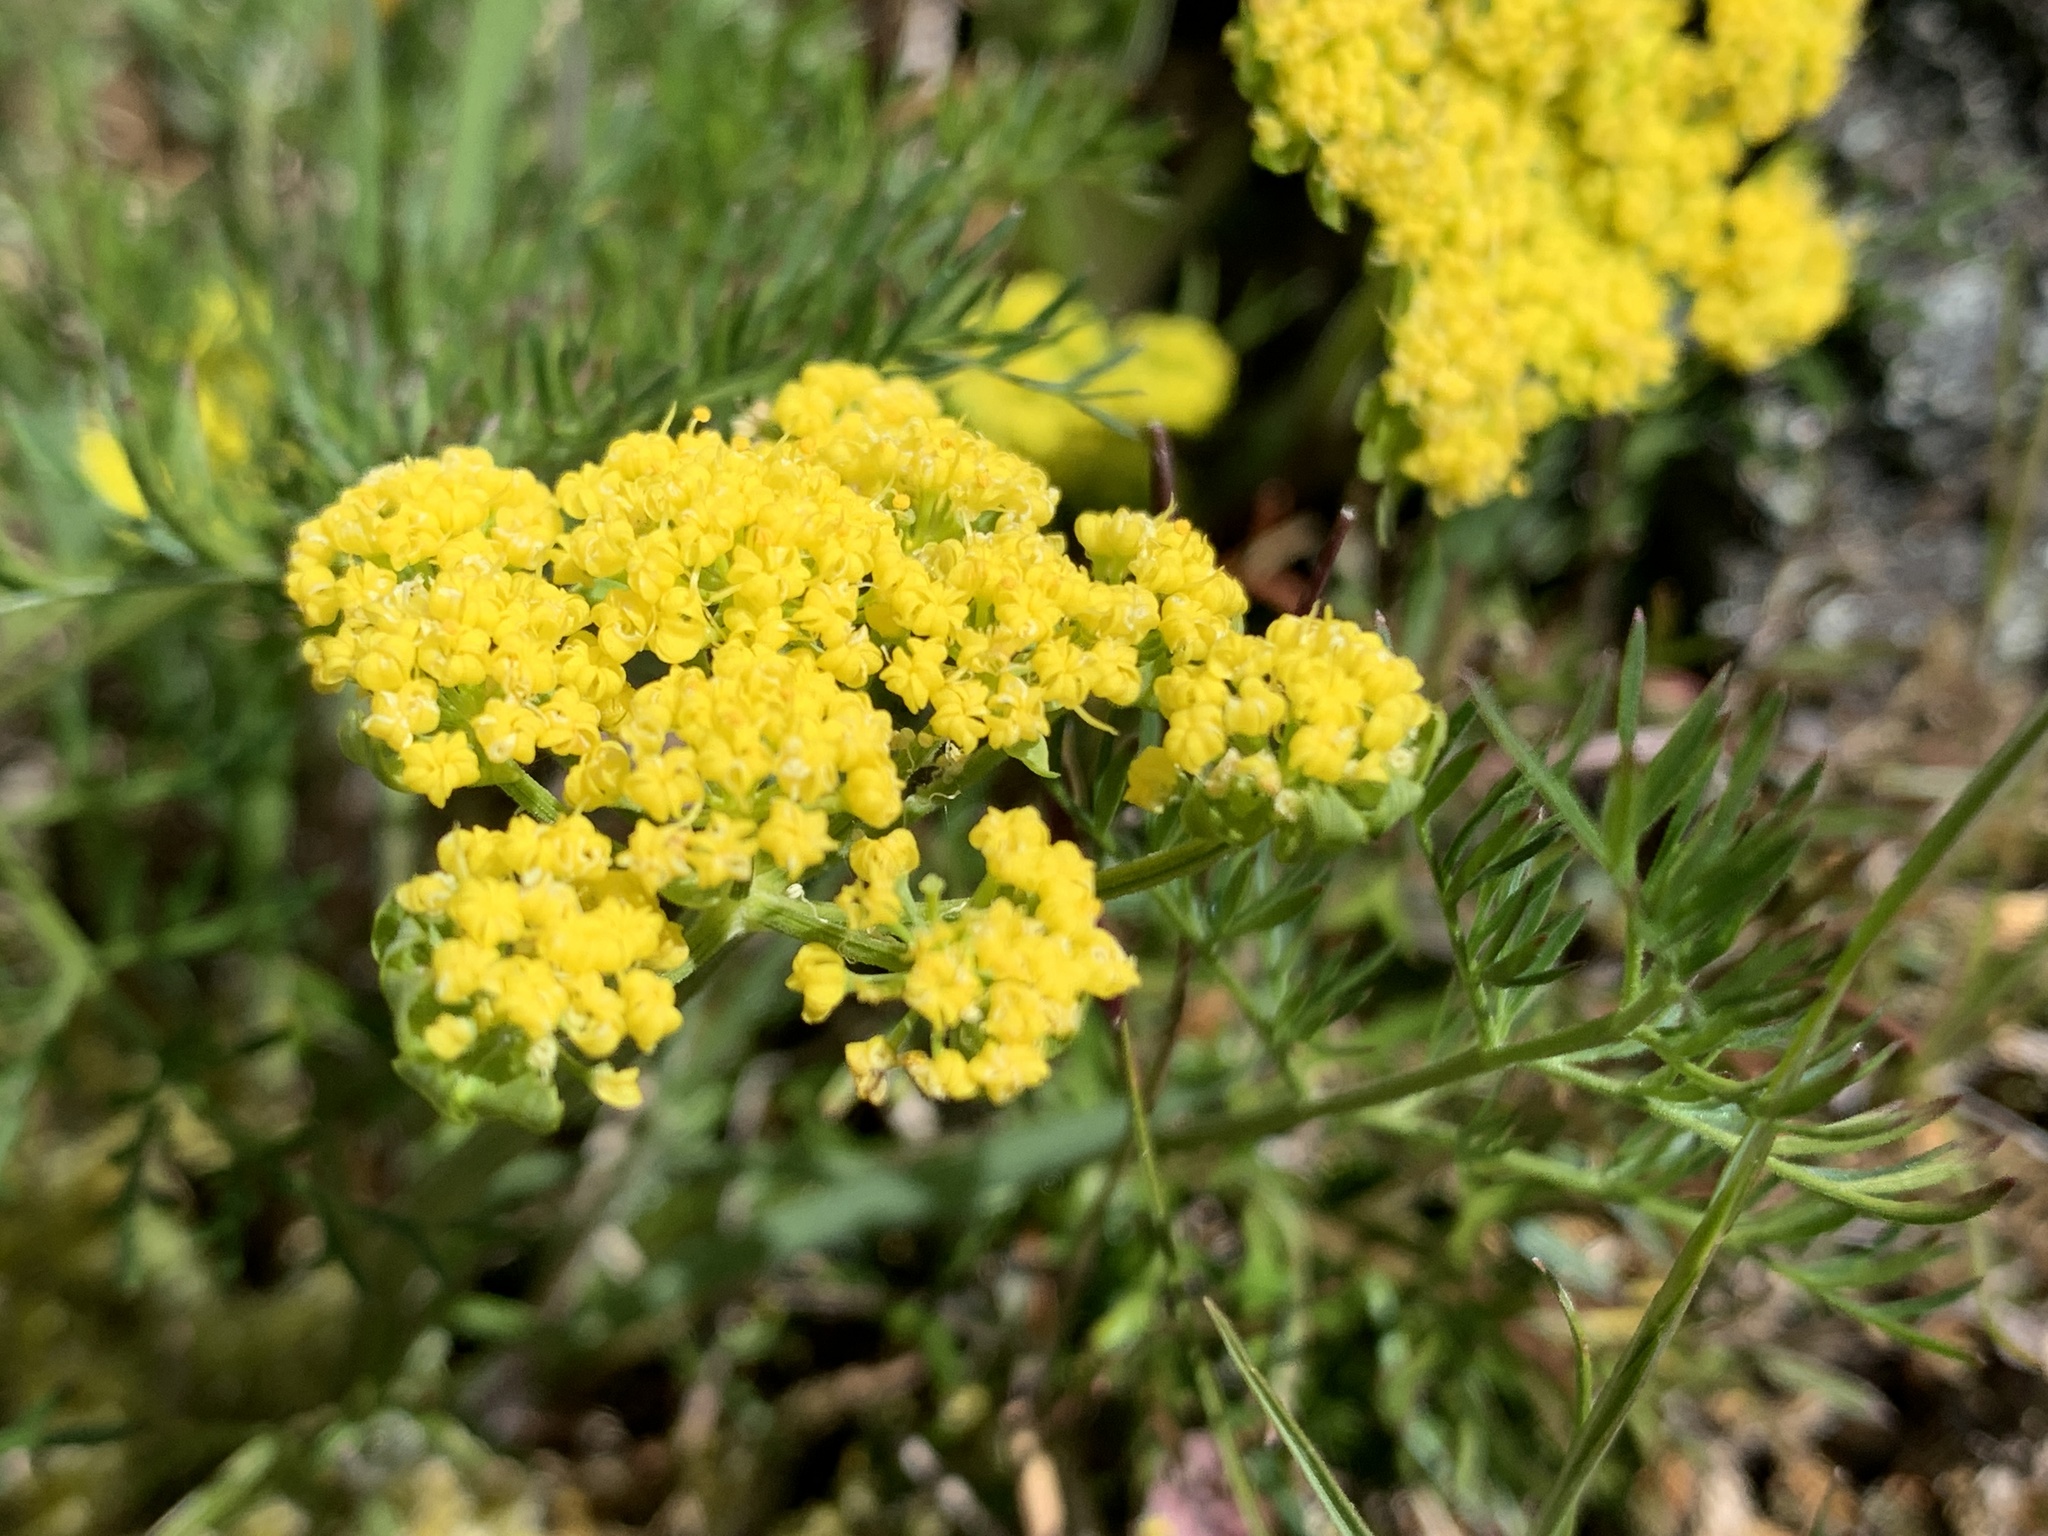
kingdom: Plantae
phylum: Tracheophyta
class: Magnoliopsida
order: Apiales
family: Apiaceae
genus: Lomatium
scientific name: Lomatium utriculatum
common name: Fine-leaf desert-parsley
